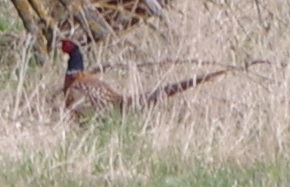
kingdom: Animalia
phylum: Chordata
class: Aves
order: Galliformes
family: Phasianidae
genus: Phasianus
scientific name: Phasianus colchicus
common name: Common pheasant
